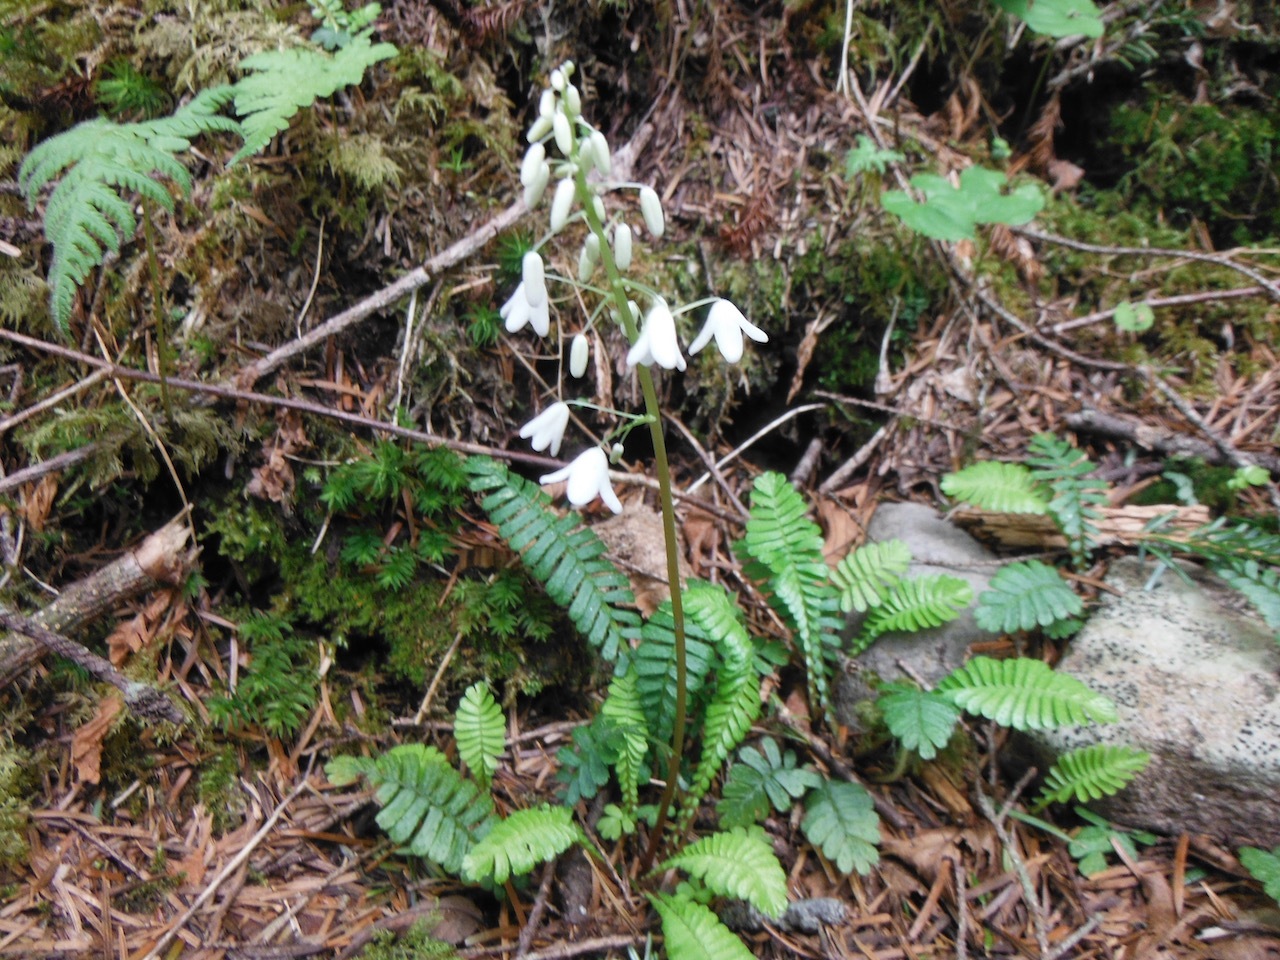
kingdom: Plantae
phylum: Tracheophyta
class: Magnoliopsida
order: Ranunculales
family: Pteridophyllaceae
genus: Pteridophyllum
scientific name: Pteridophyllum racemosum
